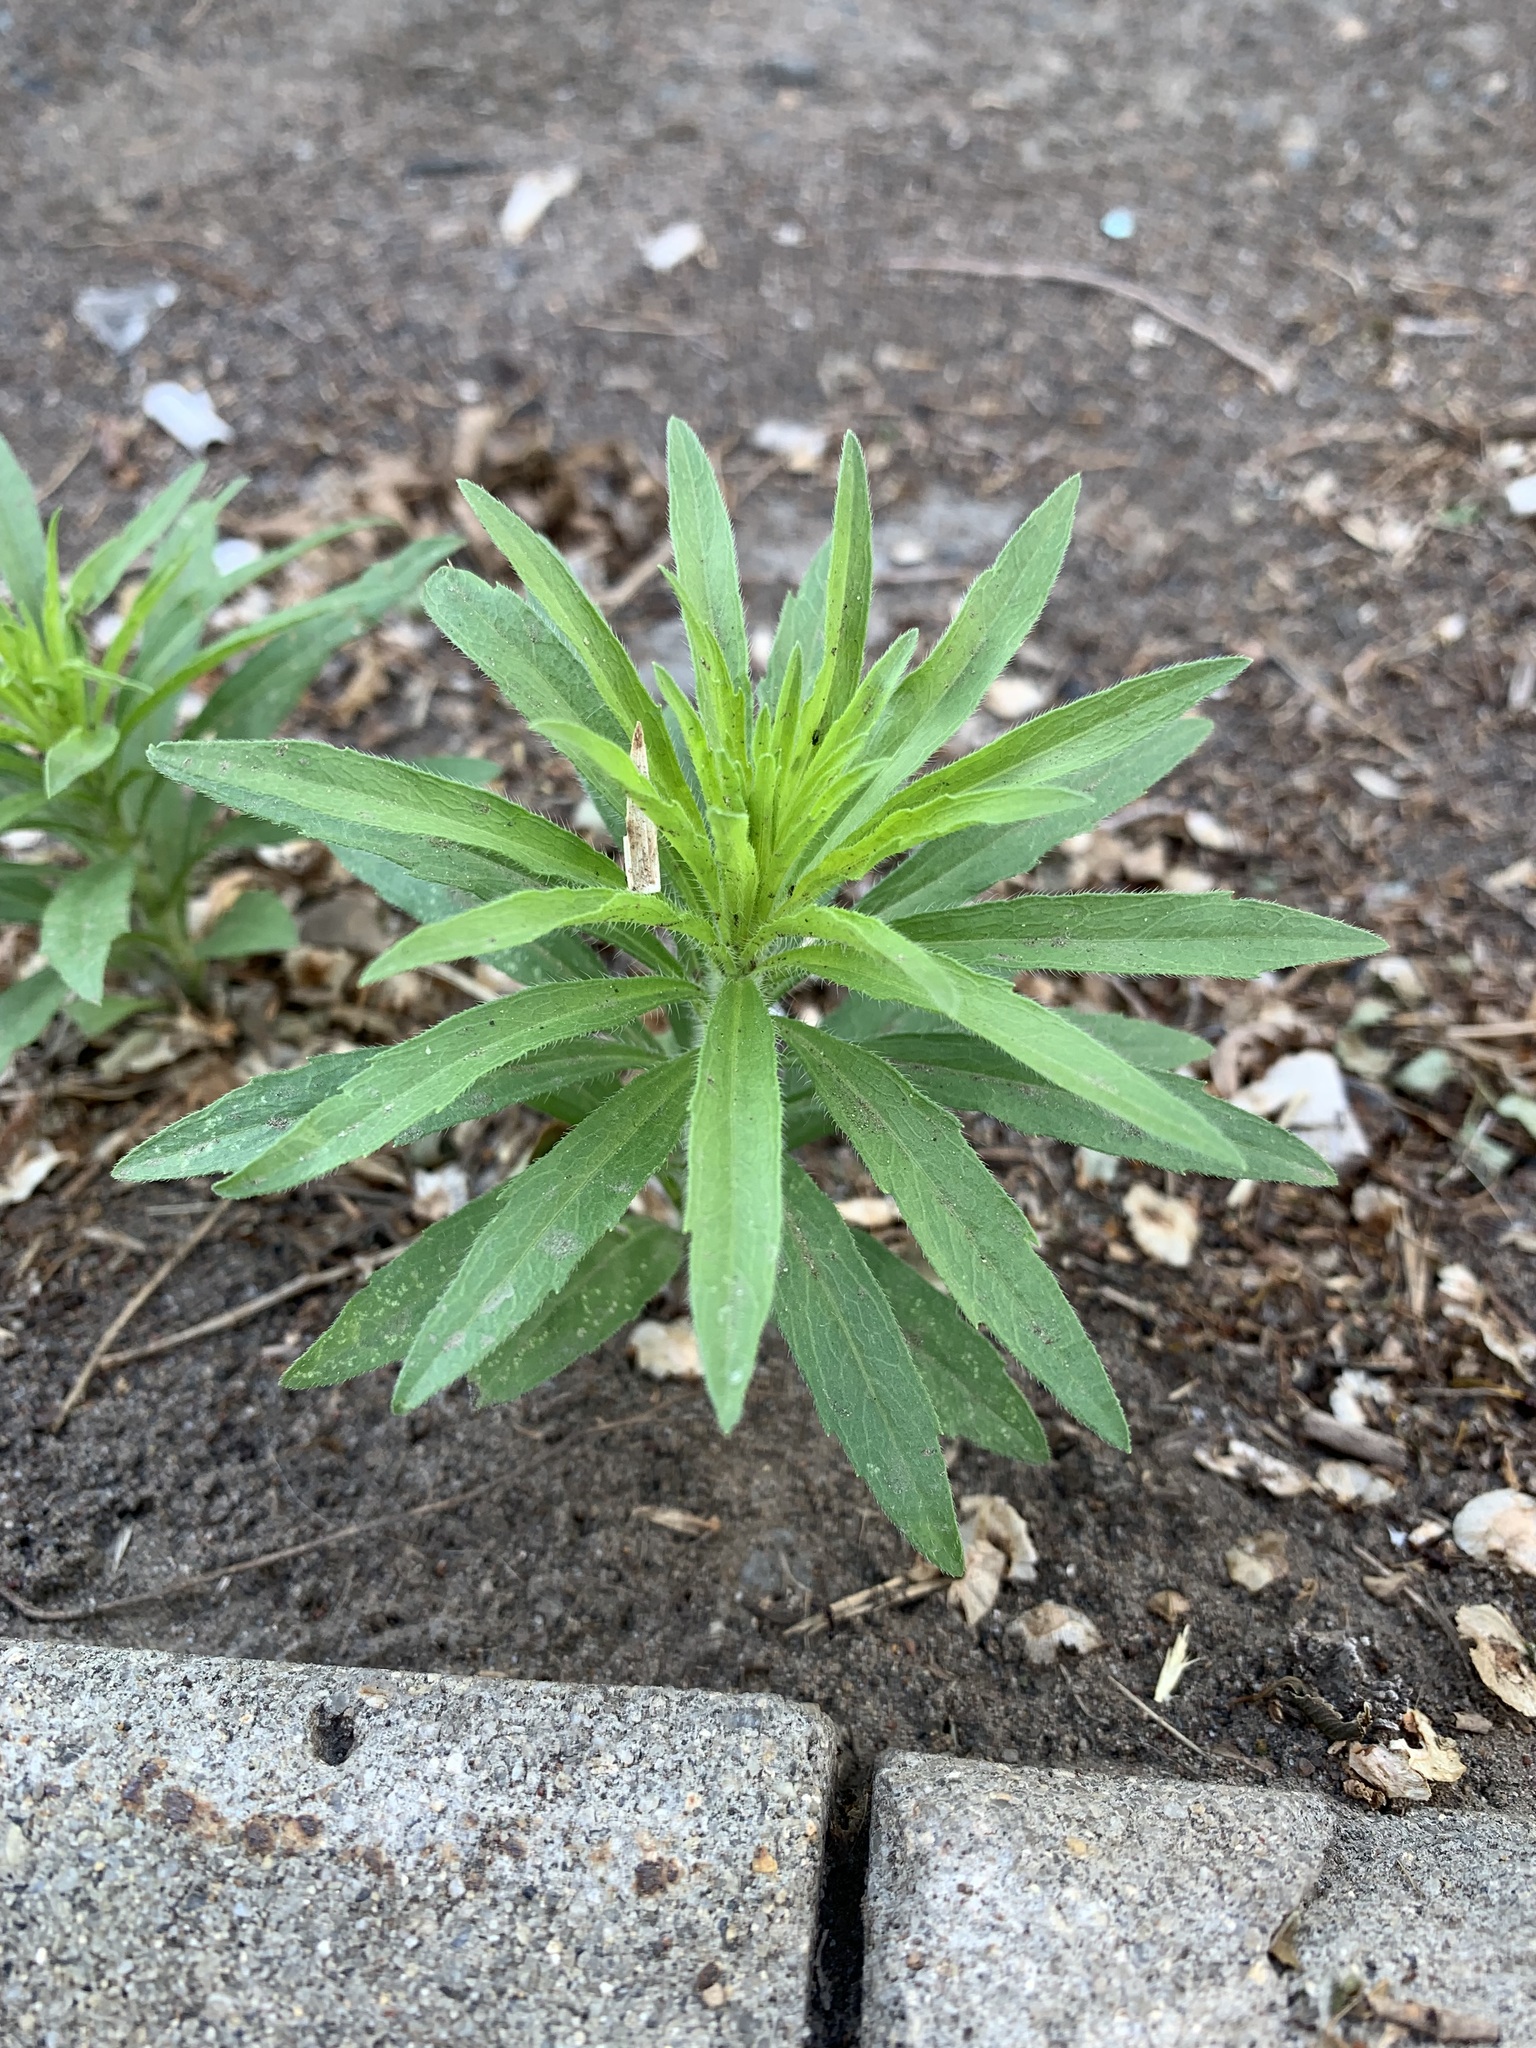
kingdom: Plantae
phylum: Tracheophyta
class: Magnoliopsida
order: Asterales
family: Asteraceae
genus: Erigeron
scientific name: Erigeron canadensis
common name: Canadian fleabane
